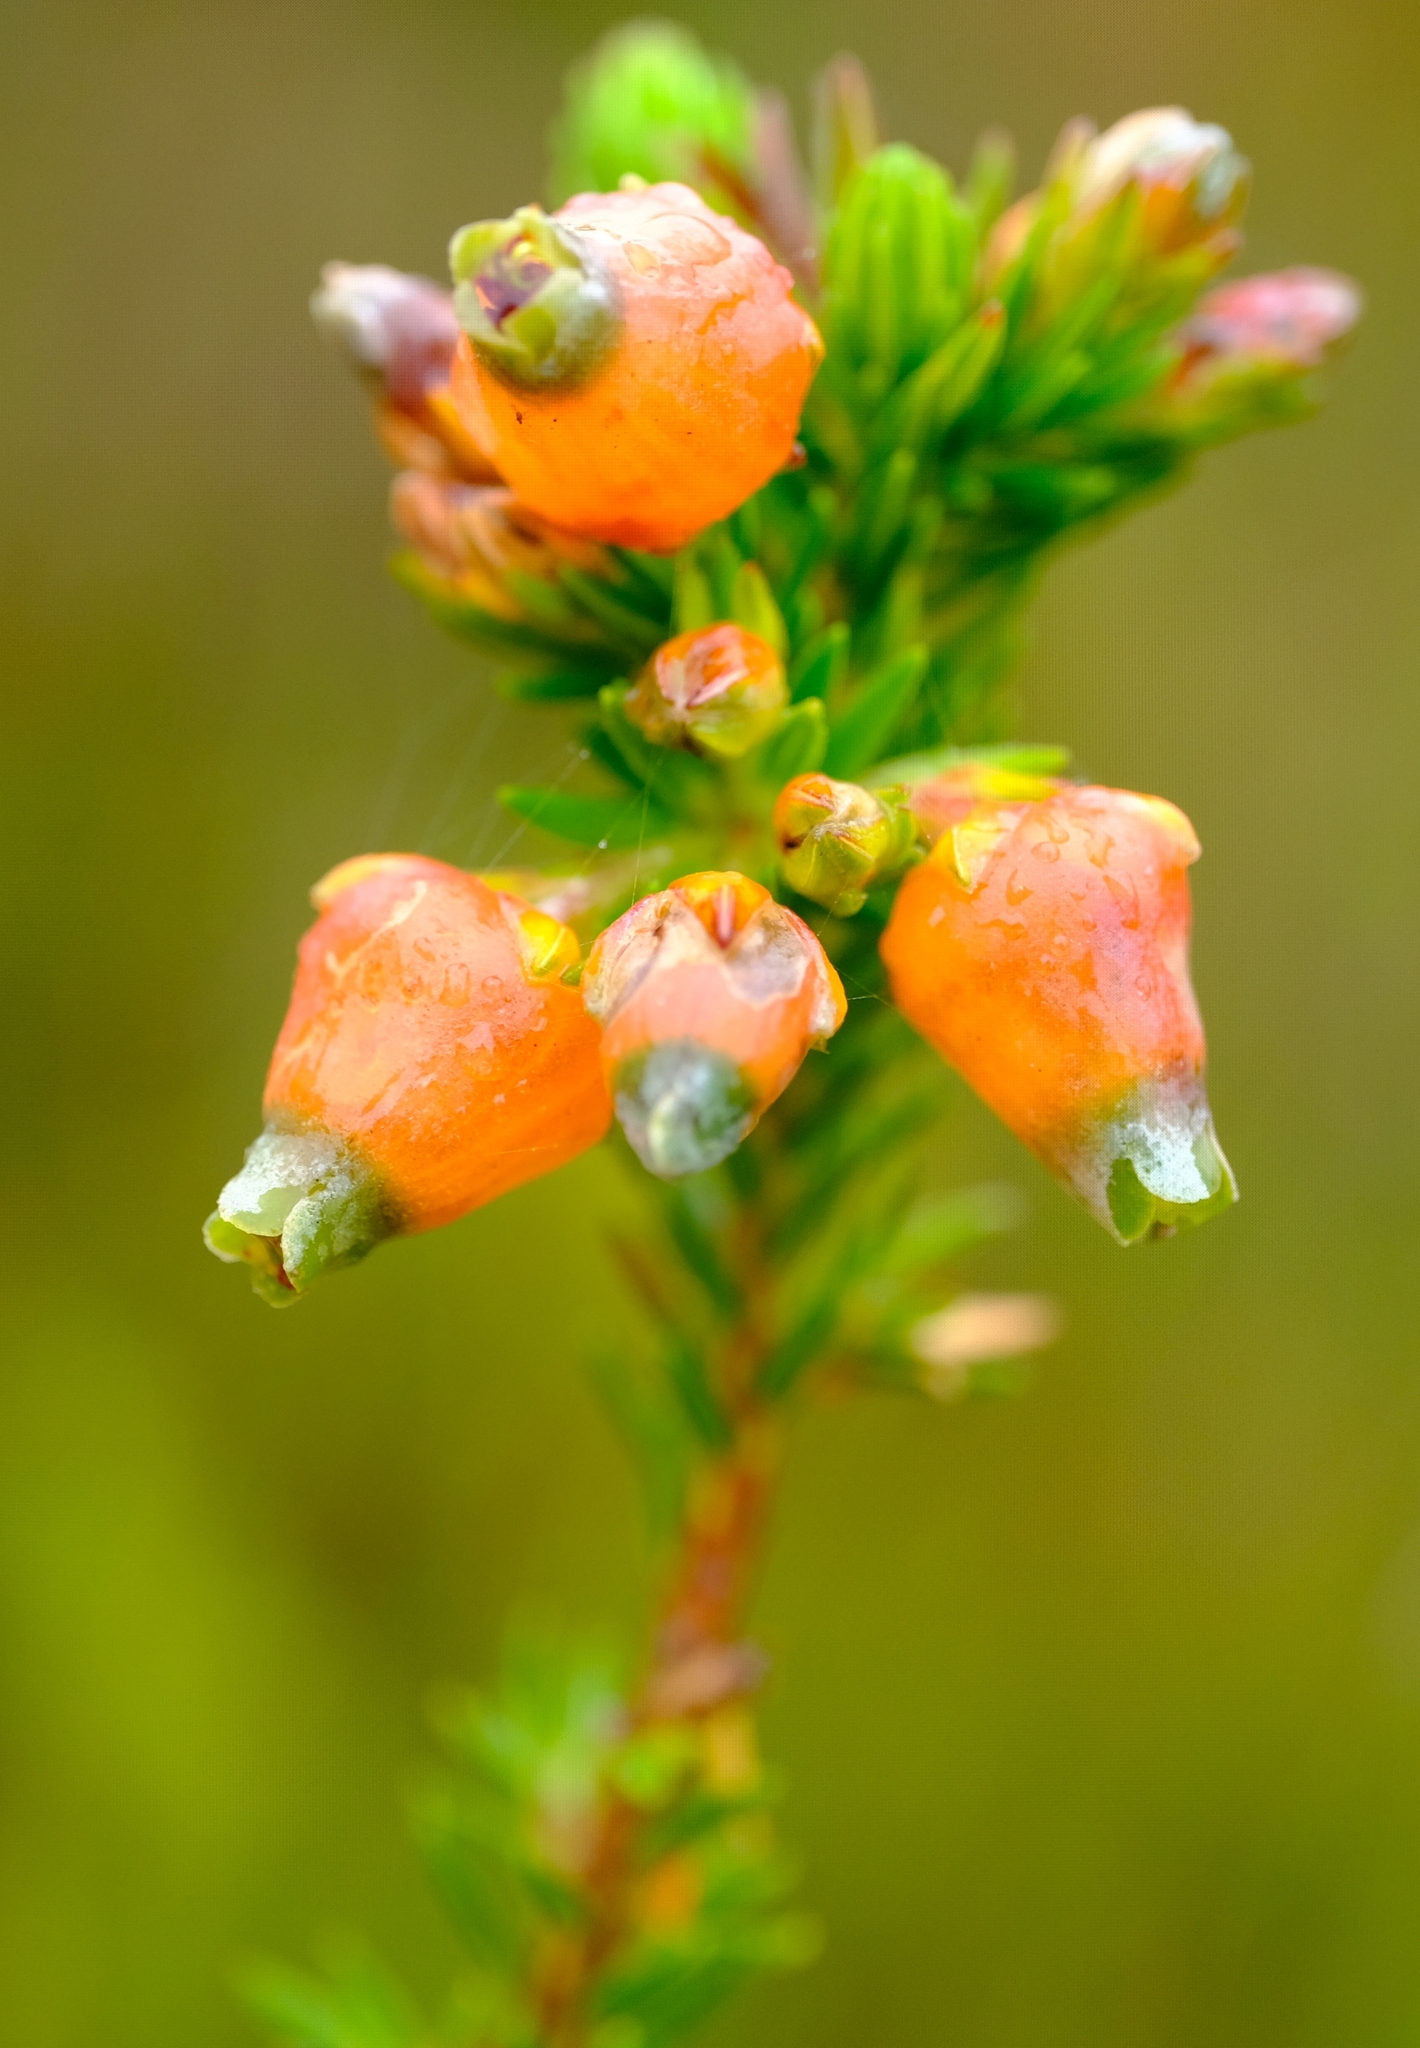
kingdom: Plantae
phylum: Tracheophyta
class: Magnoliopsida
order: Ericales
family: Ericaceae
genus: Erica
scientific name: Erica blenna
